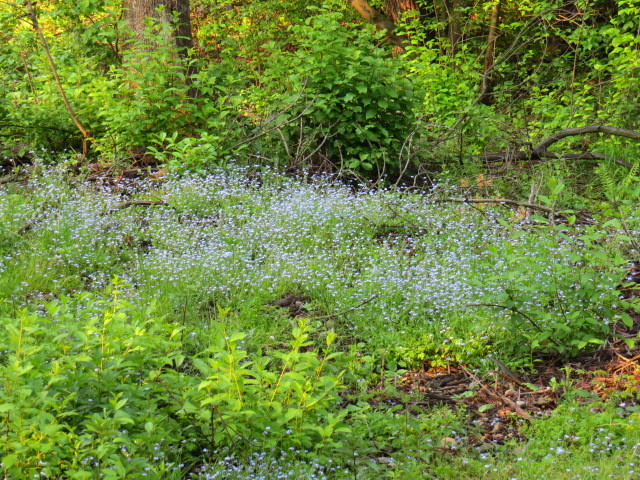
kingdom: Plantae
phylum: Tracheophyta
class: Magnoliopsida
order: Boraginales
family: Boraginaceae
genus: Myosotis
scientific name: Myosotis sylvatica
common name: Wood forget-me-not
